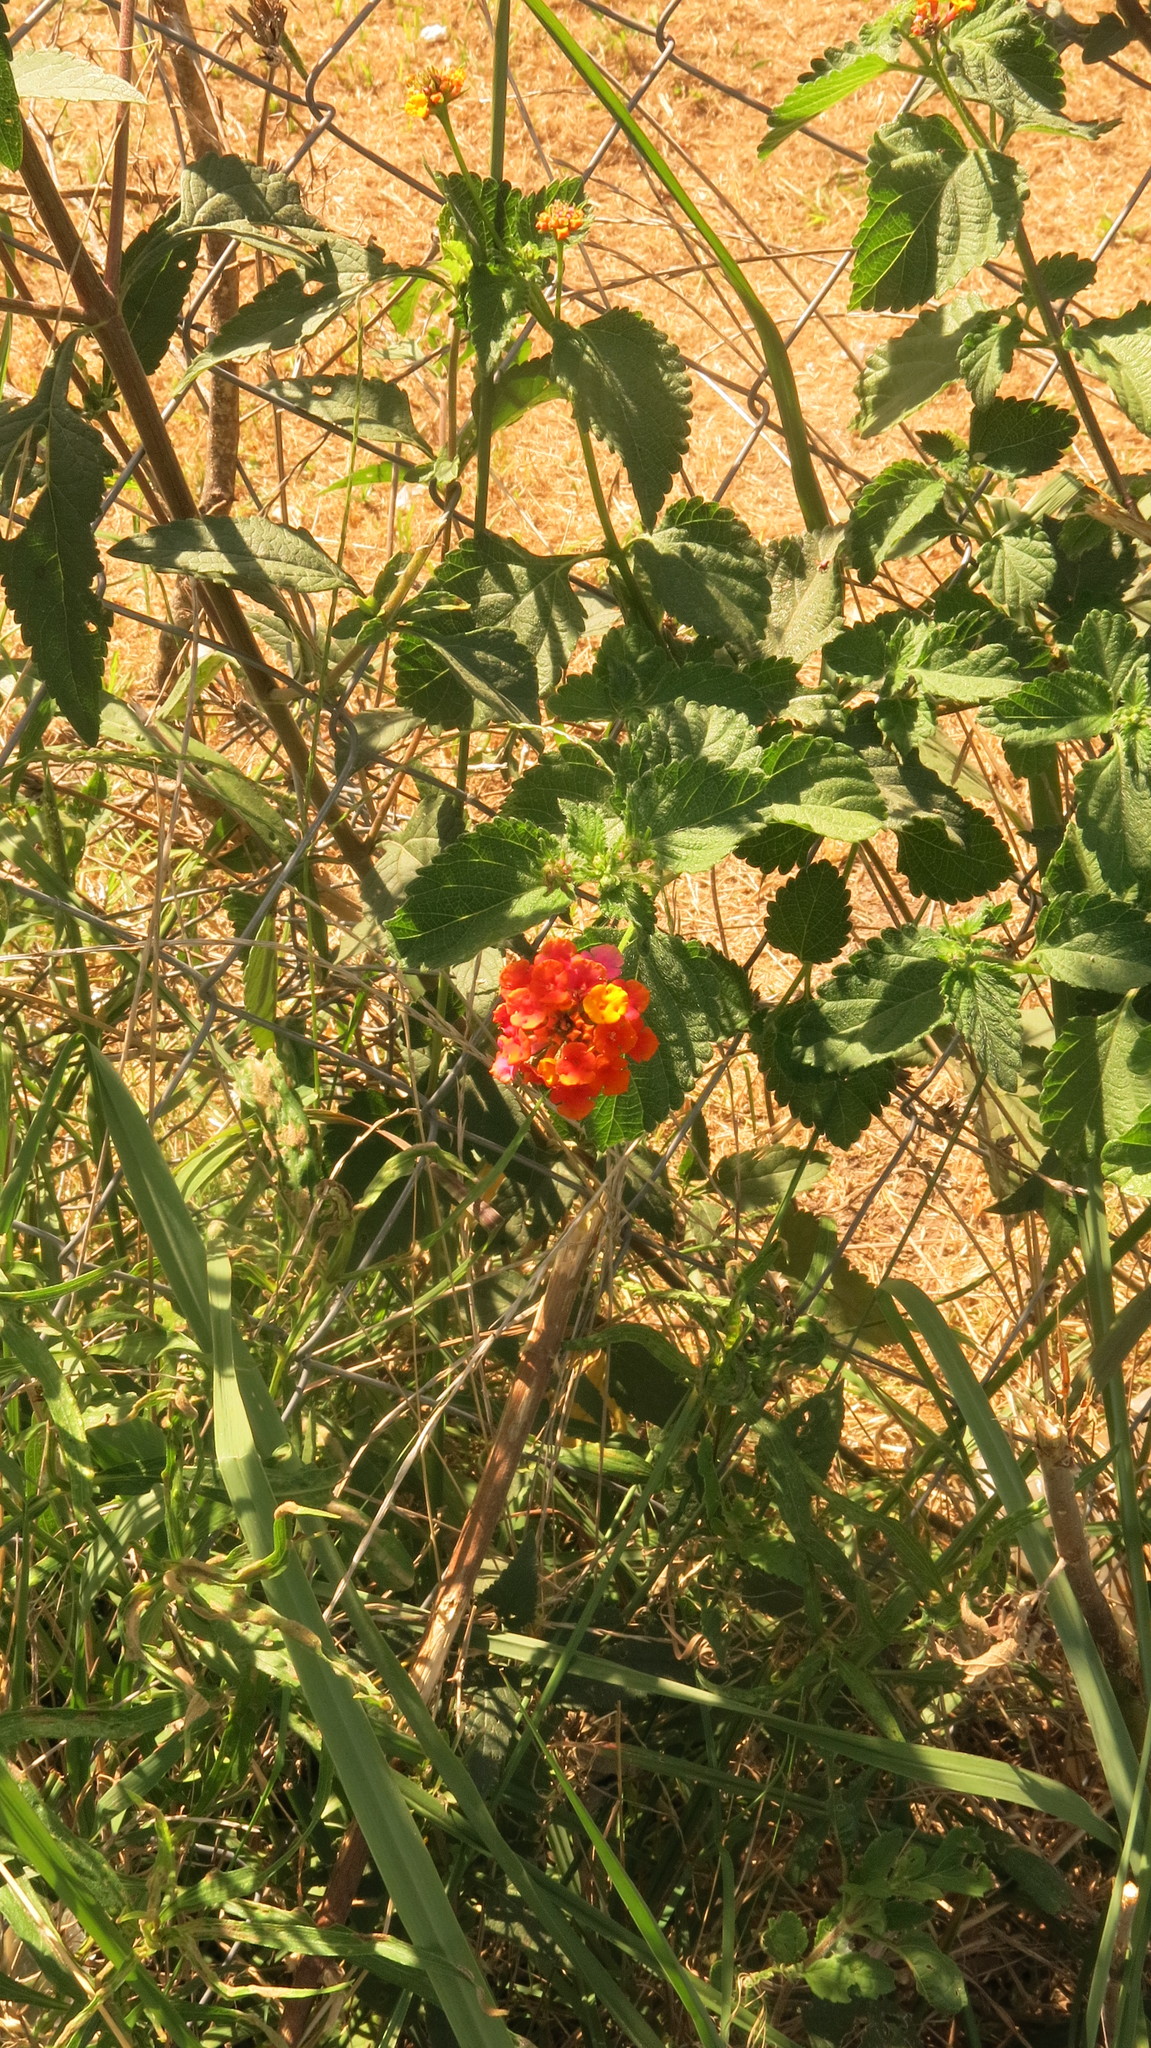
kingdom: Plantae
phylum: Tracheophyta
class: Magnoliopsida
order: Lamiales
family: Verbenaceae
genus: Lantana
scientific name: Lantana camara
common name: Lantana
